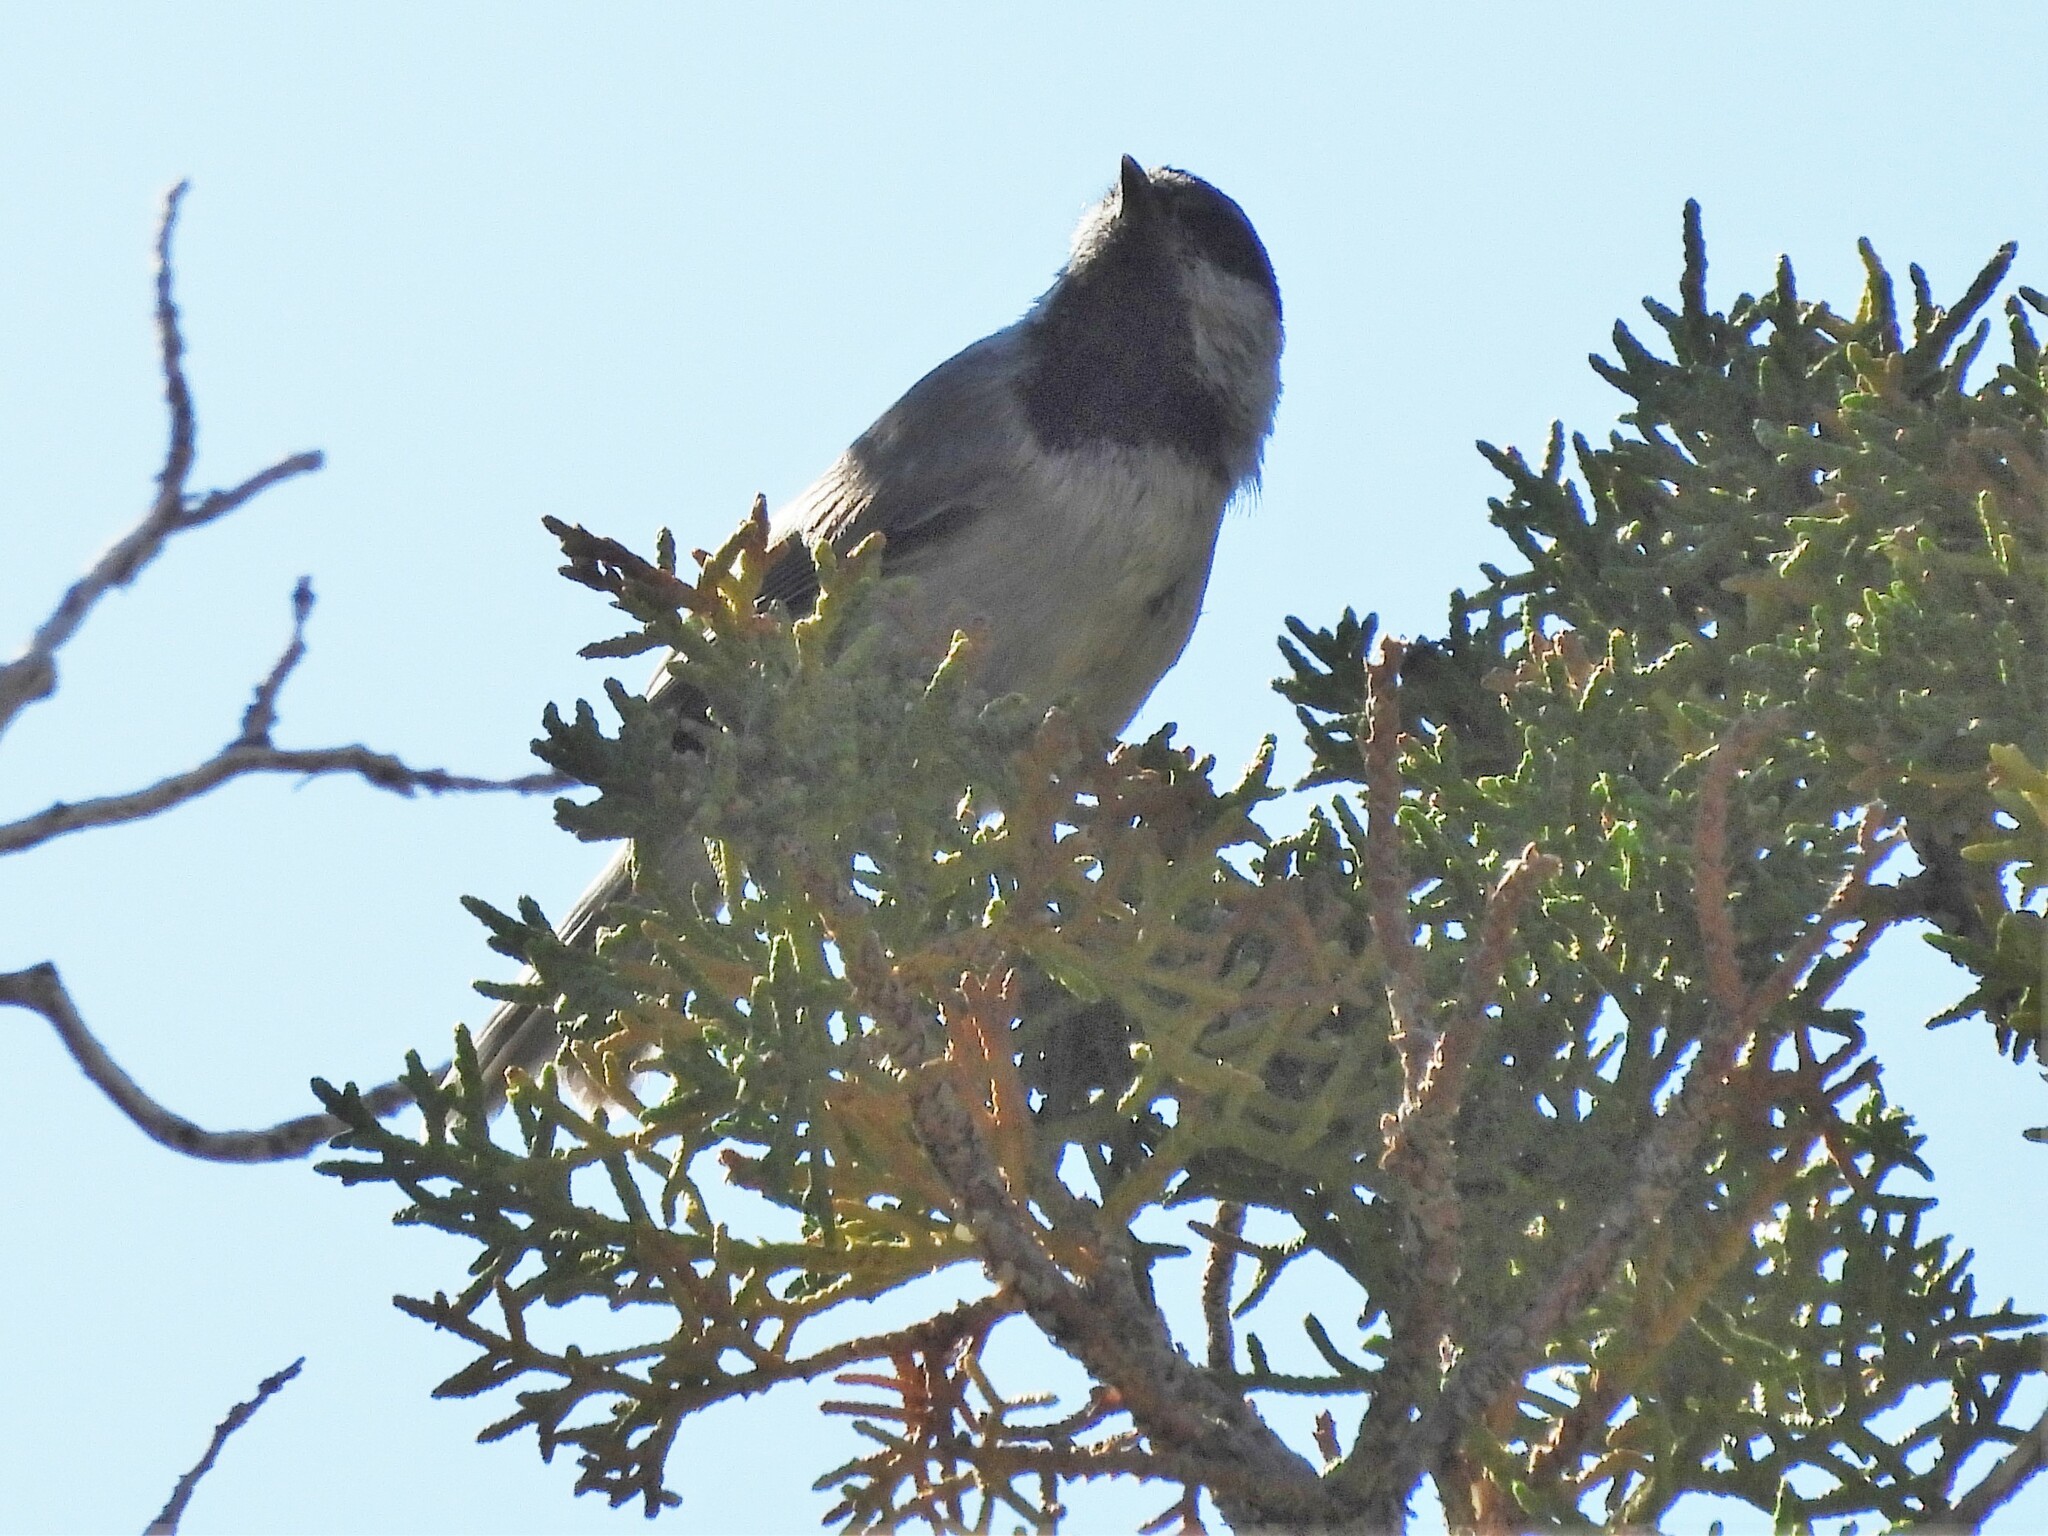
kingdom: Animalia
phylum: Chordata
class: Aves
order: Passeriformes
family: Paridae
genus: Poecile
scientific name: Poecile gambeli
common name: Mountain chickadee
